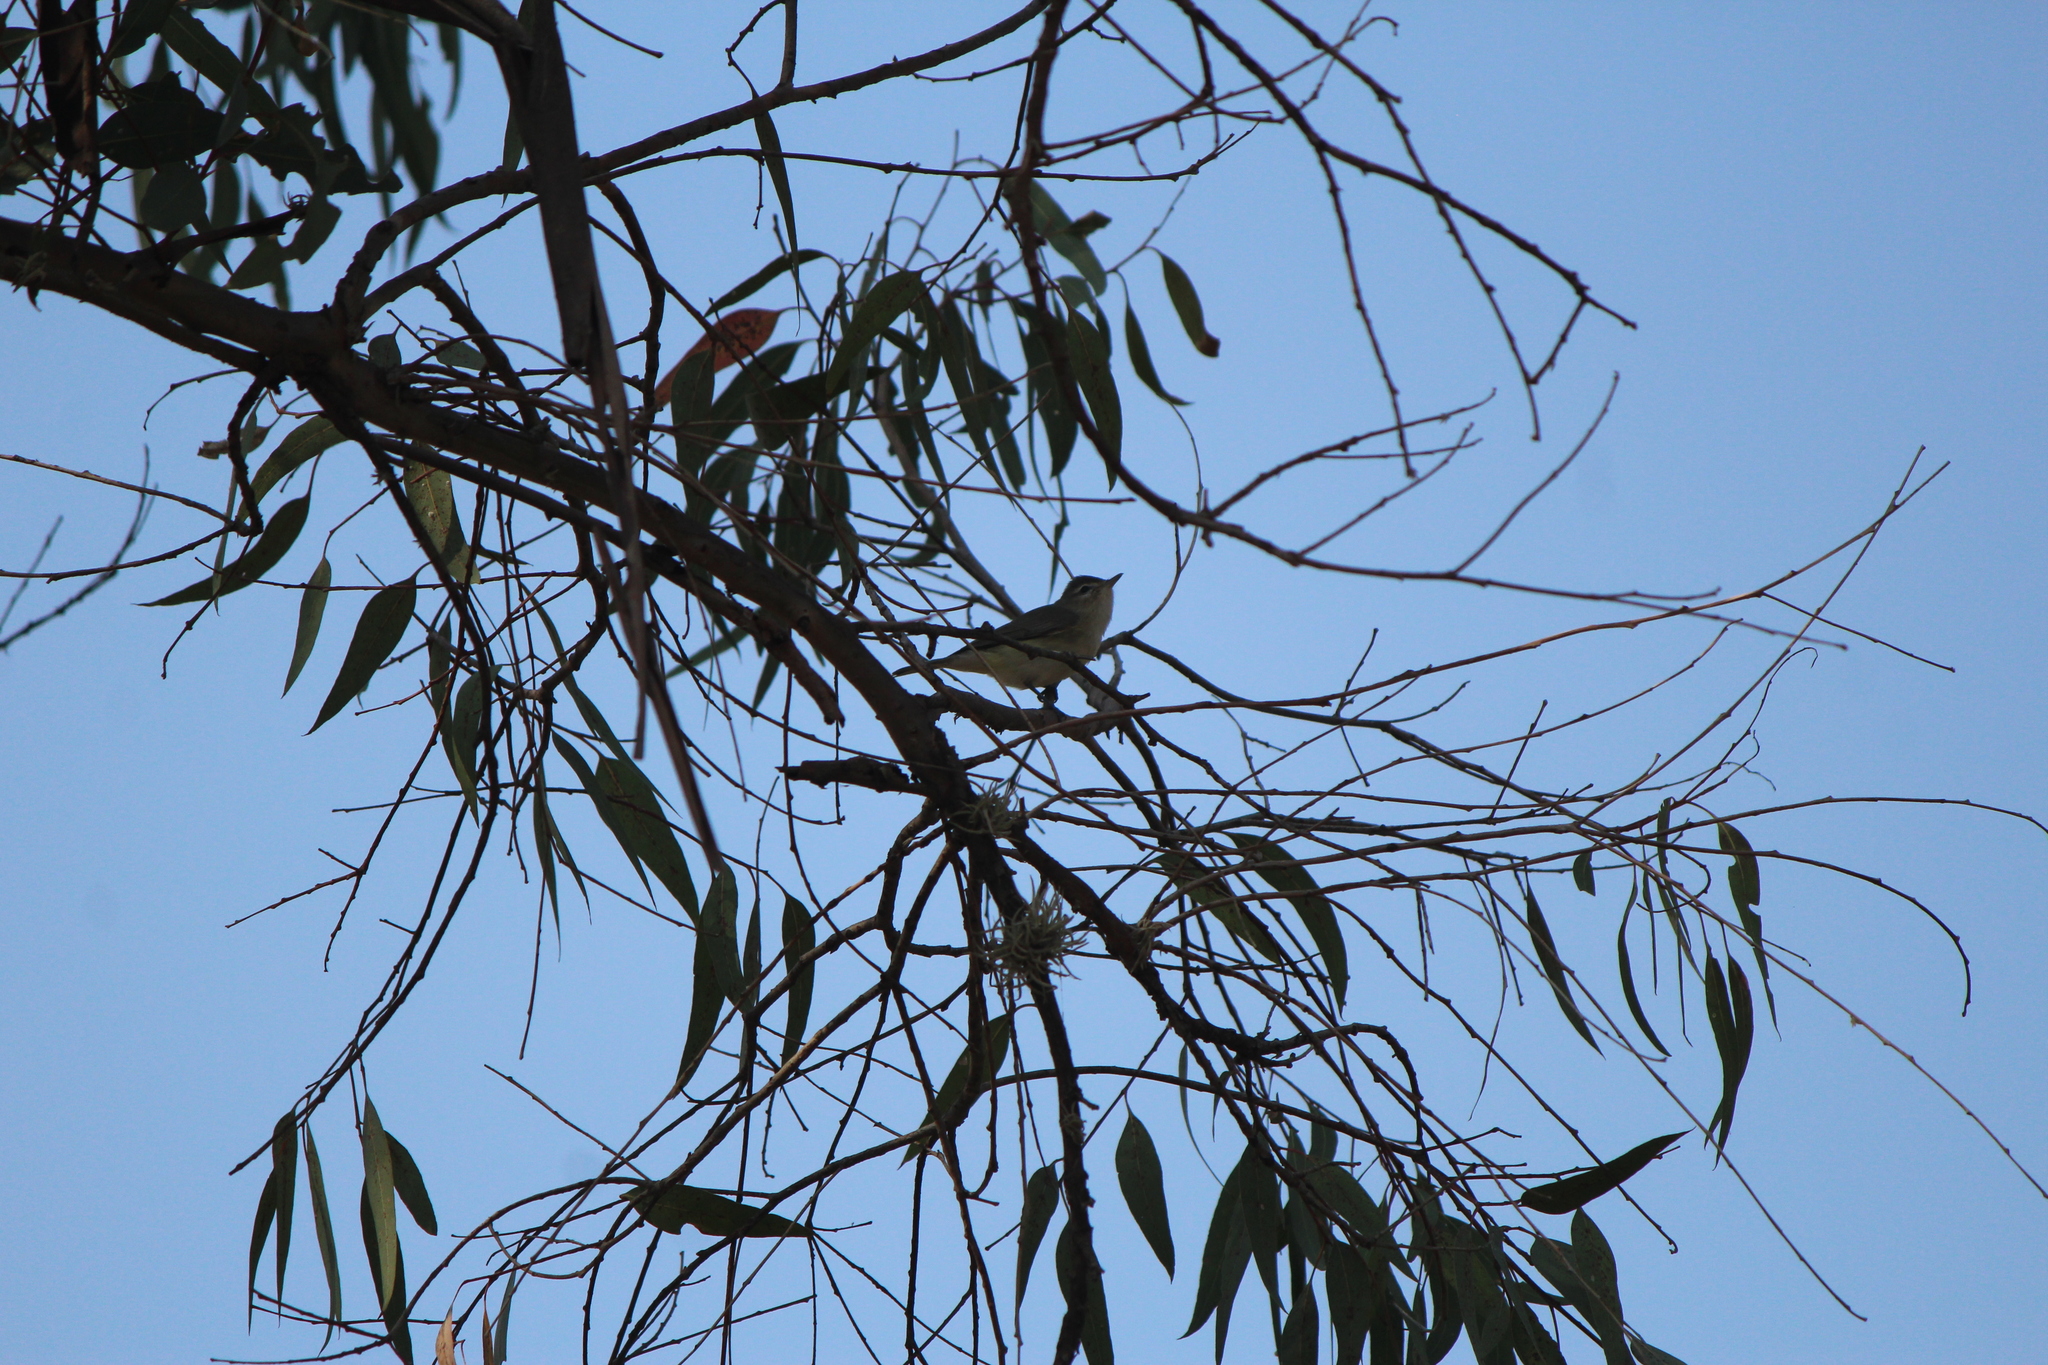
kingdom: Animalia
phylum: Chordata
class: Aves
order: Passeriformes
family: Vireonidae
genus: Vireo
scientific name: Vireo gilvus
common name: Warbling vireo
